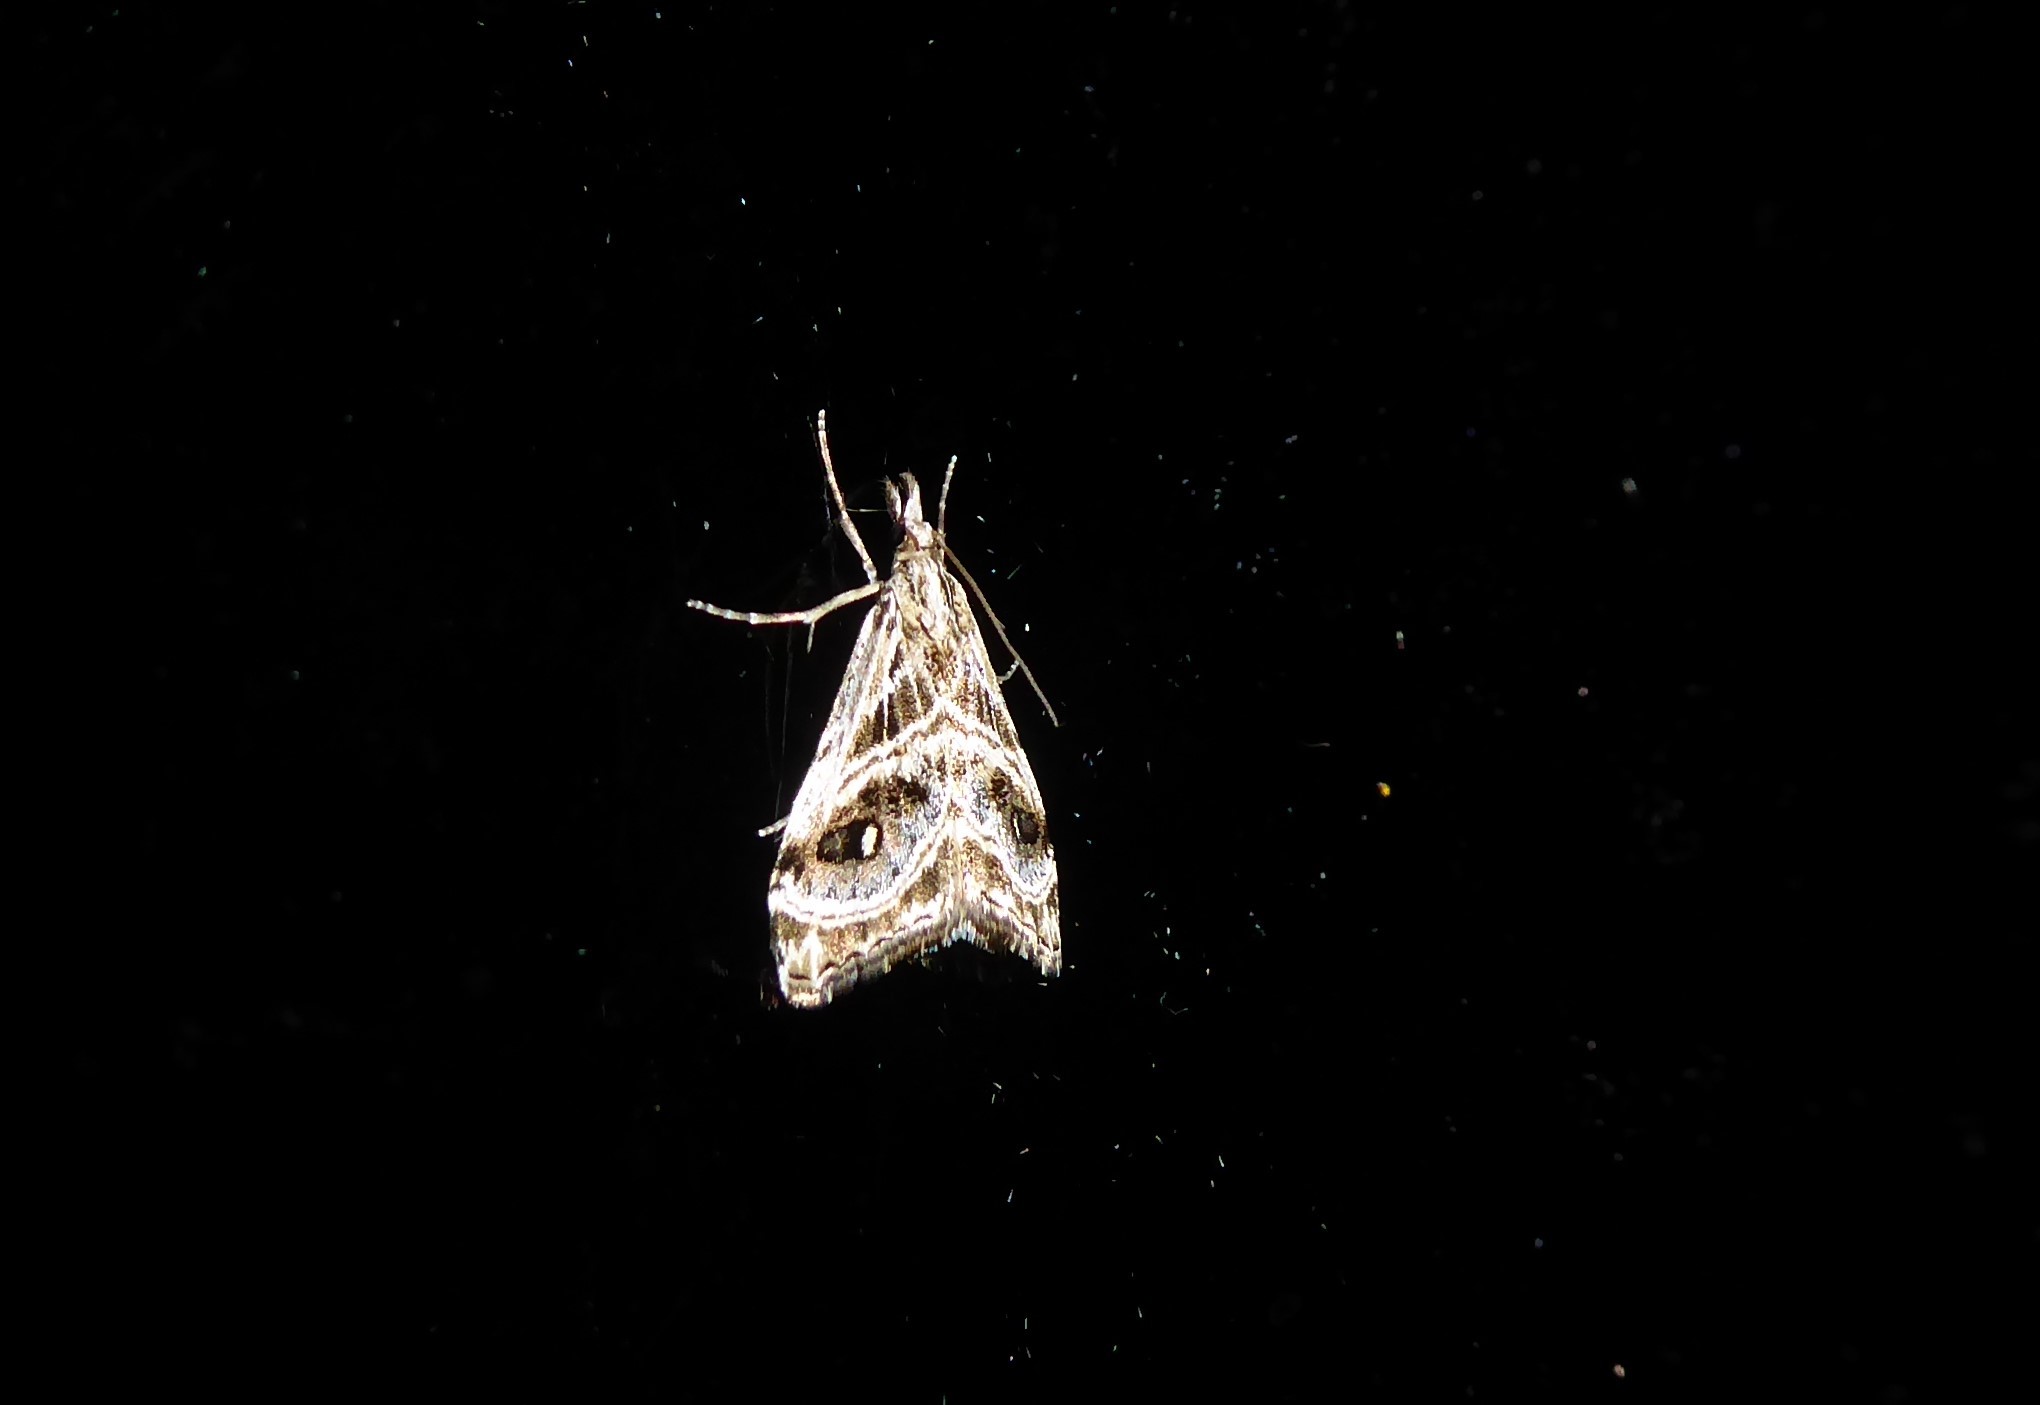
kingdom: Animalia
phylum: Arthropoda
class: Insecta
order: Lepidoptera
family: Crambidae
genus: Gadira
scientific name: Gadira acerella
